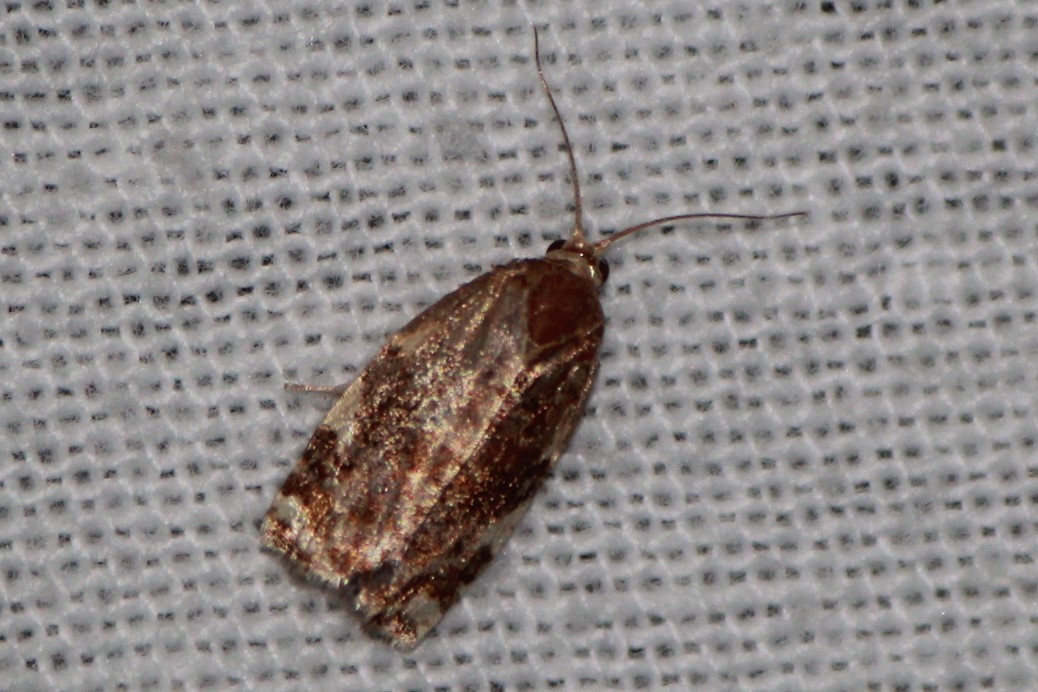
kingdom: Animalia
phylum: Arthropoda
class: Insecta
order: Lepidoptera
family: Tortricidae
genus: Archips
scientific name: Archips argyrospila
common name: Fruit-tree leafroller moth
